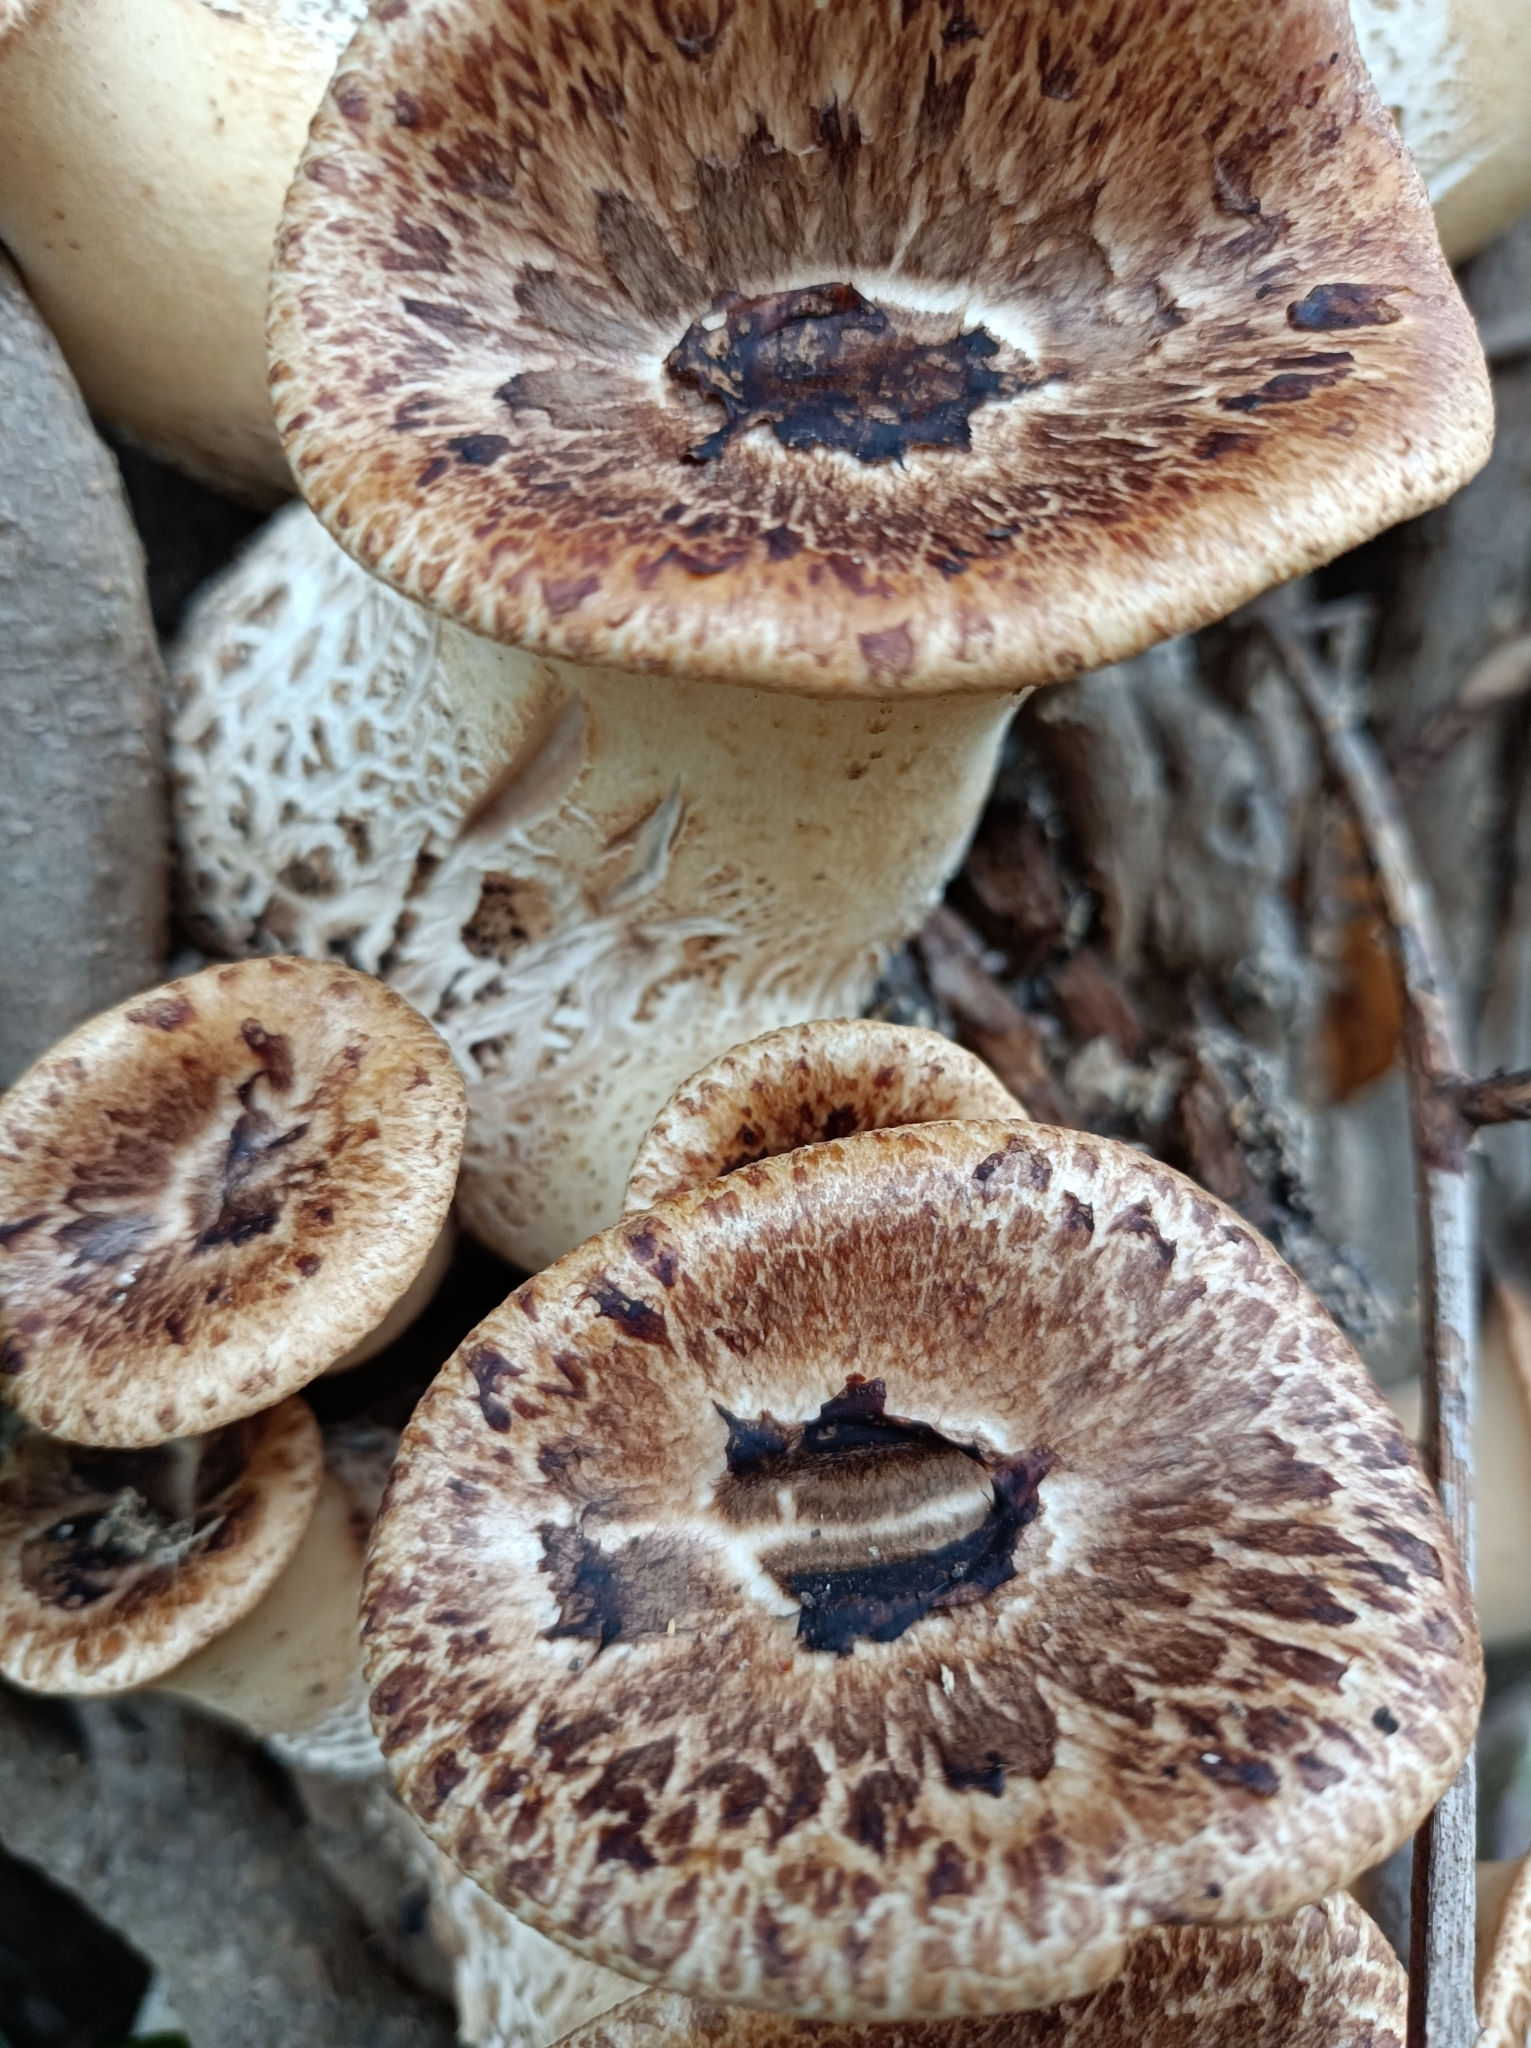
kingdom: Fungi
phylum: Basidiomycota
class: Agaricomycetes
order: Polyporales
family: Polyporaceae
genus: Cerioporus
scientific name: Cerioporus squamosus
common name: Dryad's saddle
